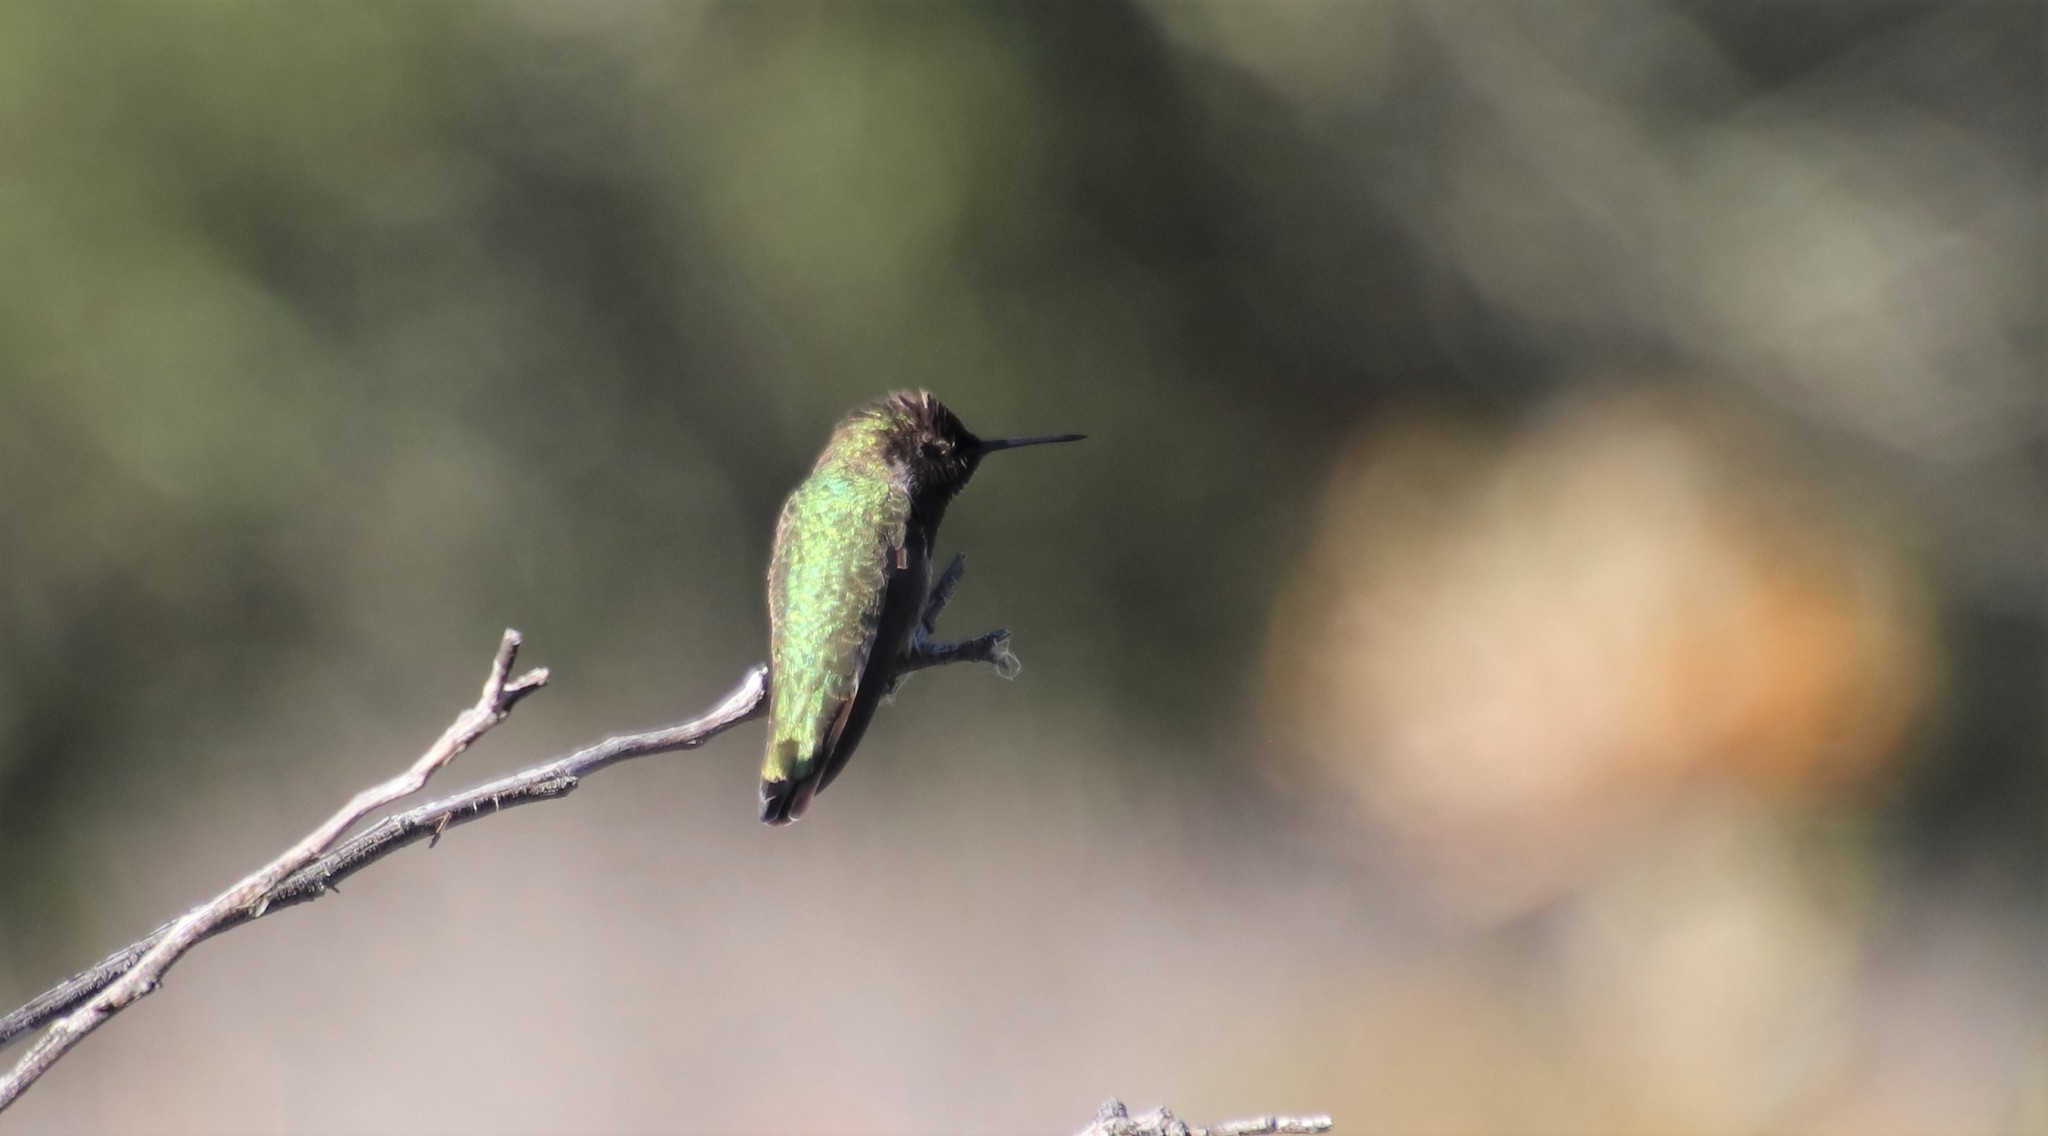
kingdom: Animalia
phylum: Chordata
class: Aves
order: Apodiformes
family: Trochilidae
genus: Calypte
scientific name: Calypte anna
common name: Anna's hummingbird
